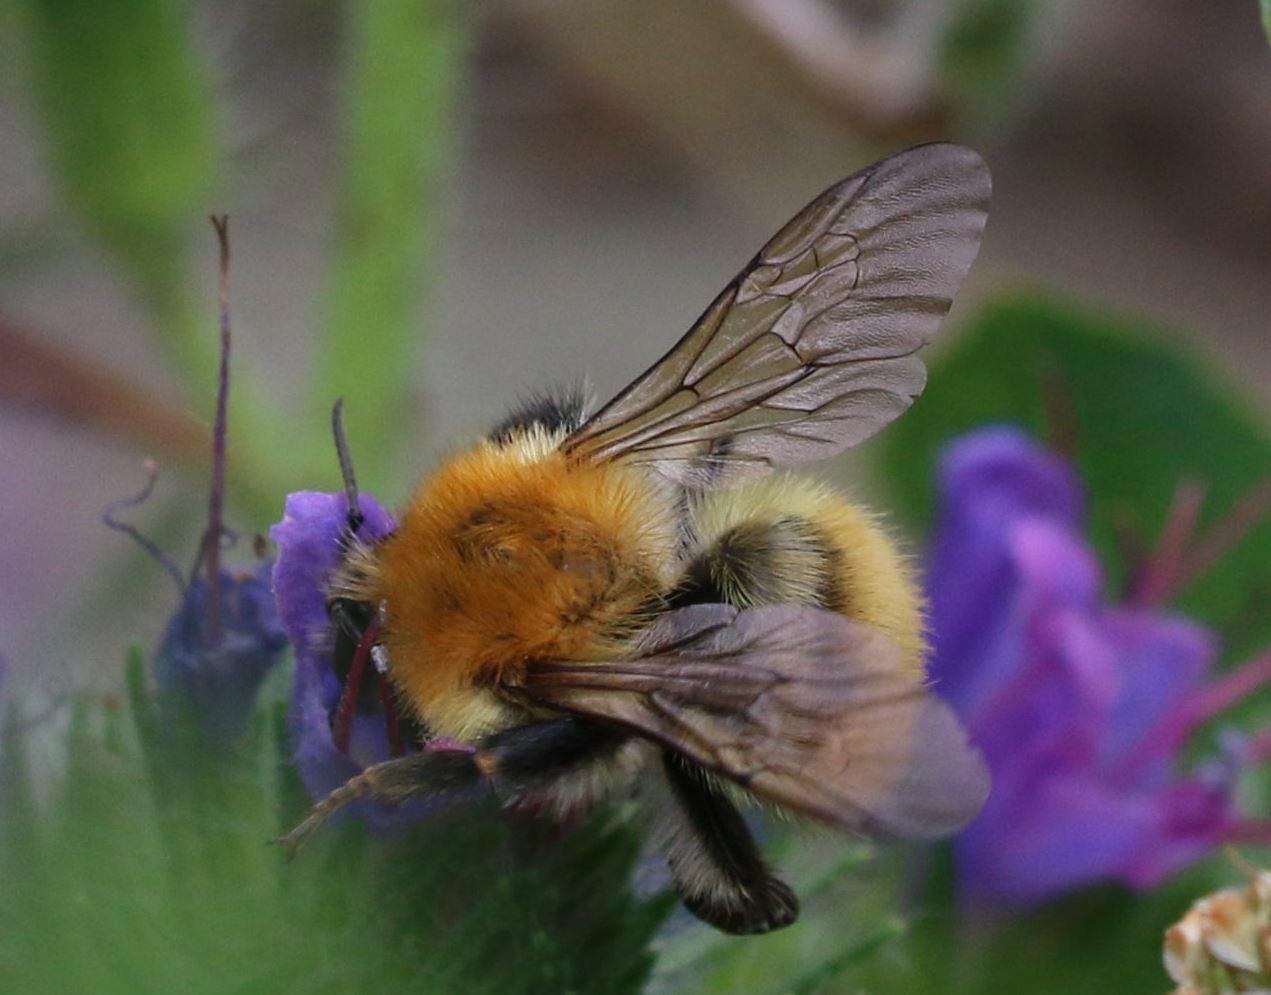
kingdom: Animalia
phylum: Arthropoda
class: Insecta
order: Hymenoptera
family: Apidae
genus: Bombus
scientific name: Bombus pascuorum
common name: Common carder bee
